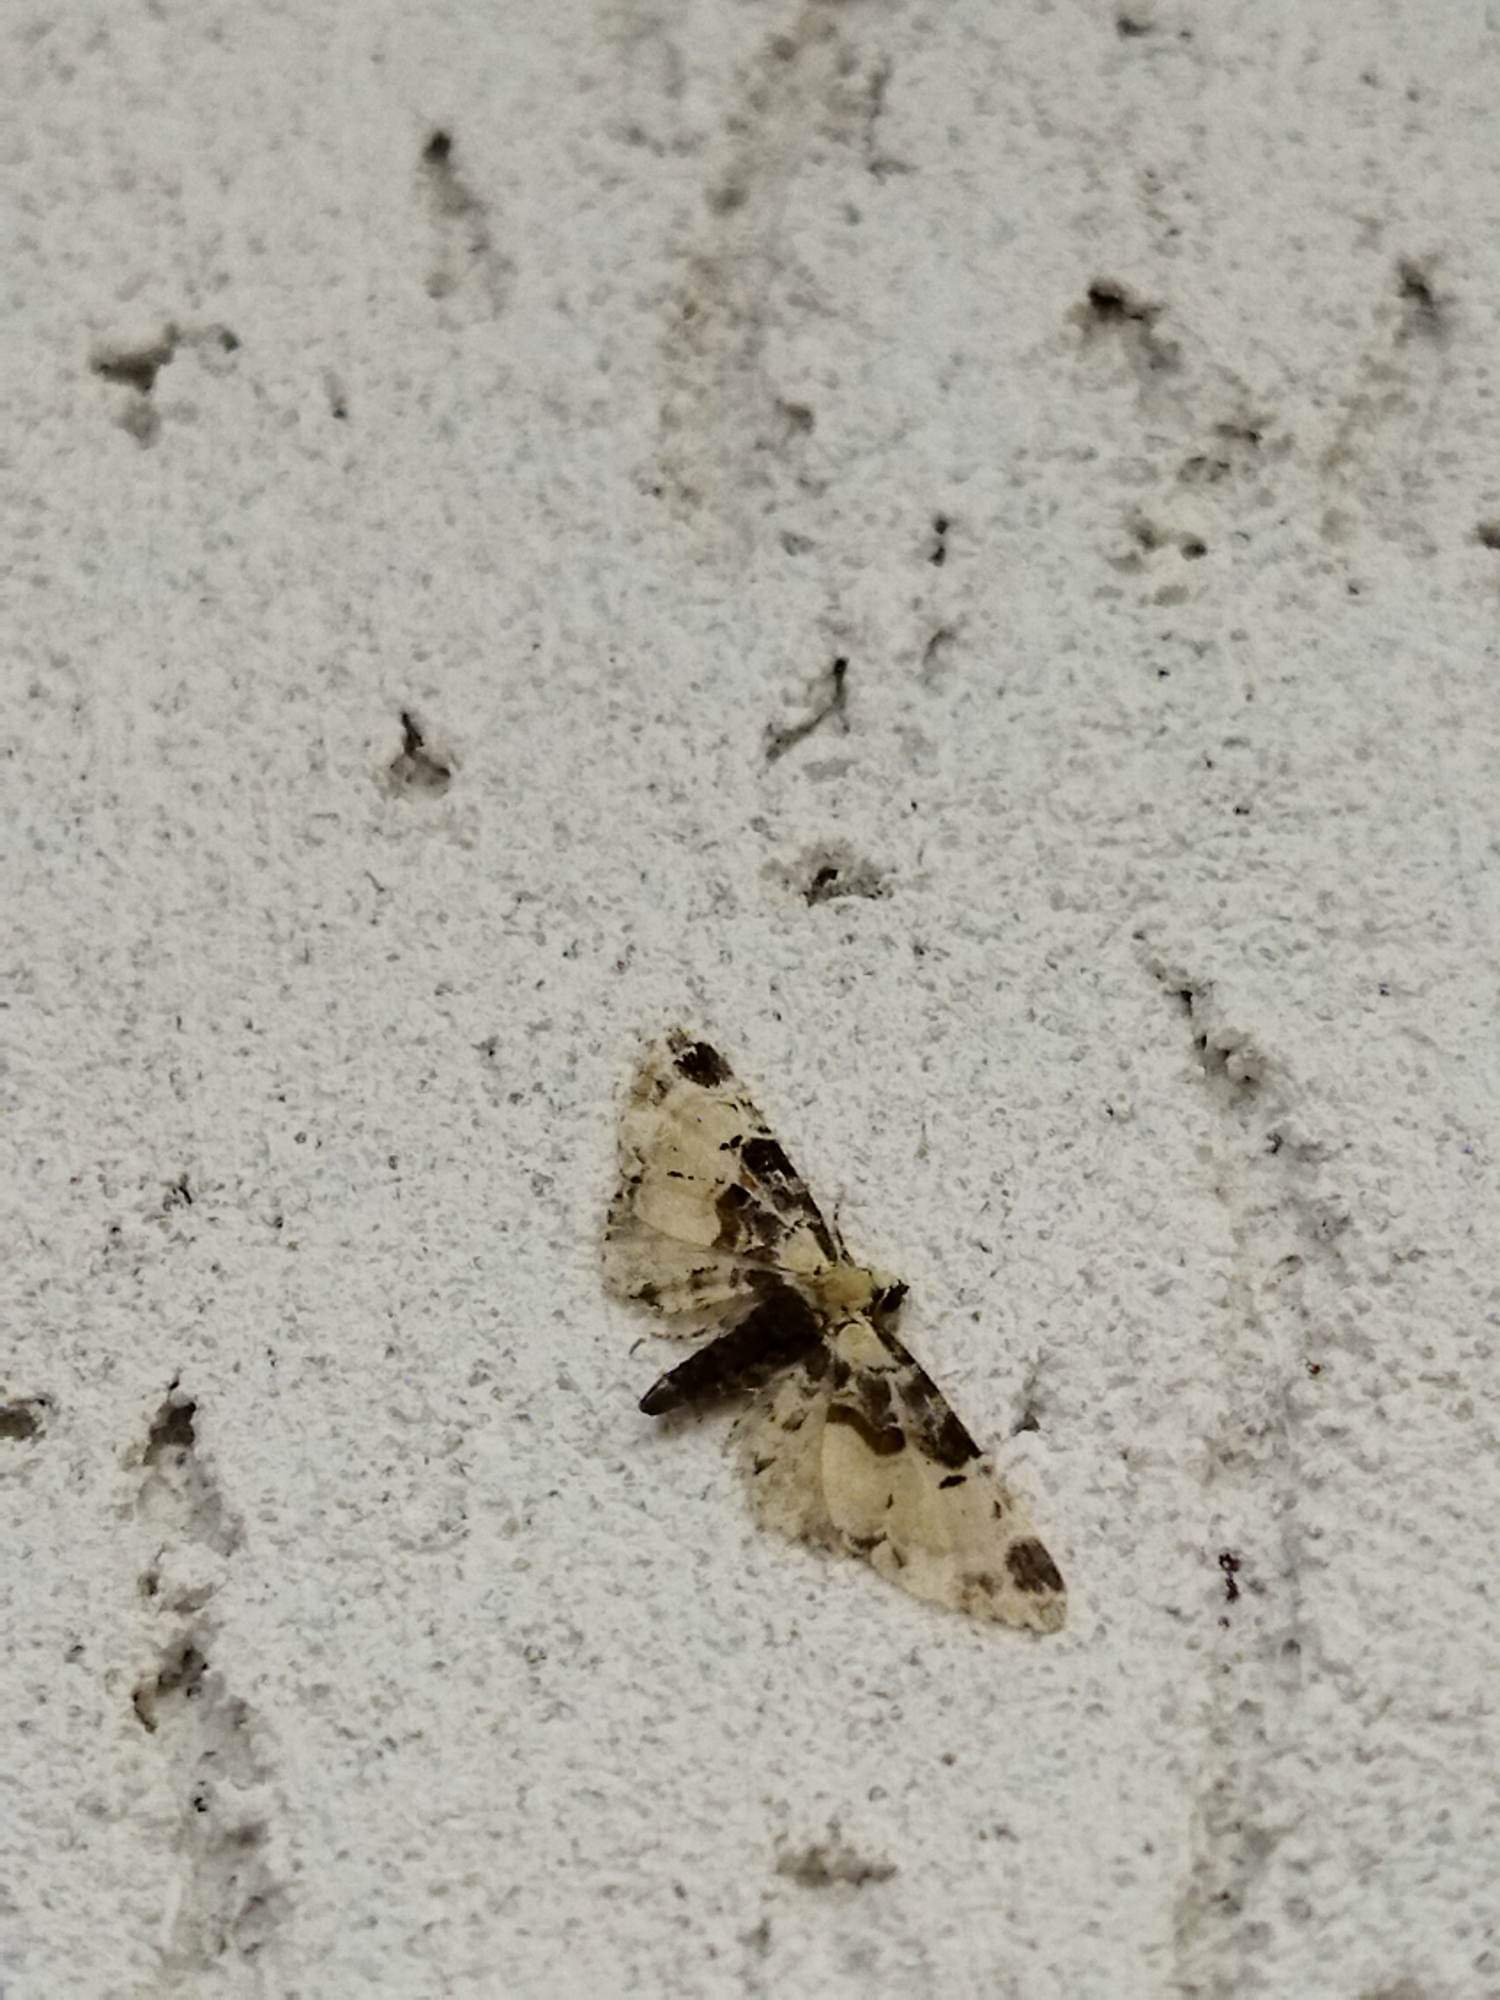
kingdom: Animalia
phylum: Arthropoda
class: Insecta
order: Lepidoptera
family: Geometridae
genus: Eupithecia
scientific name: Eupithecia extremata
